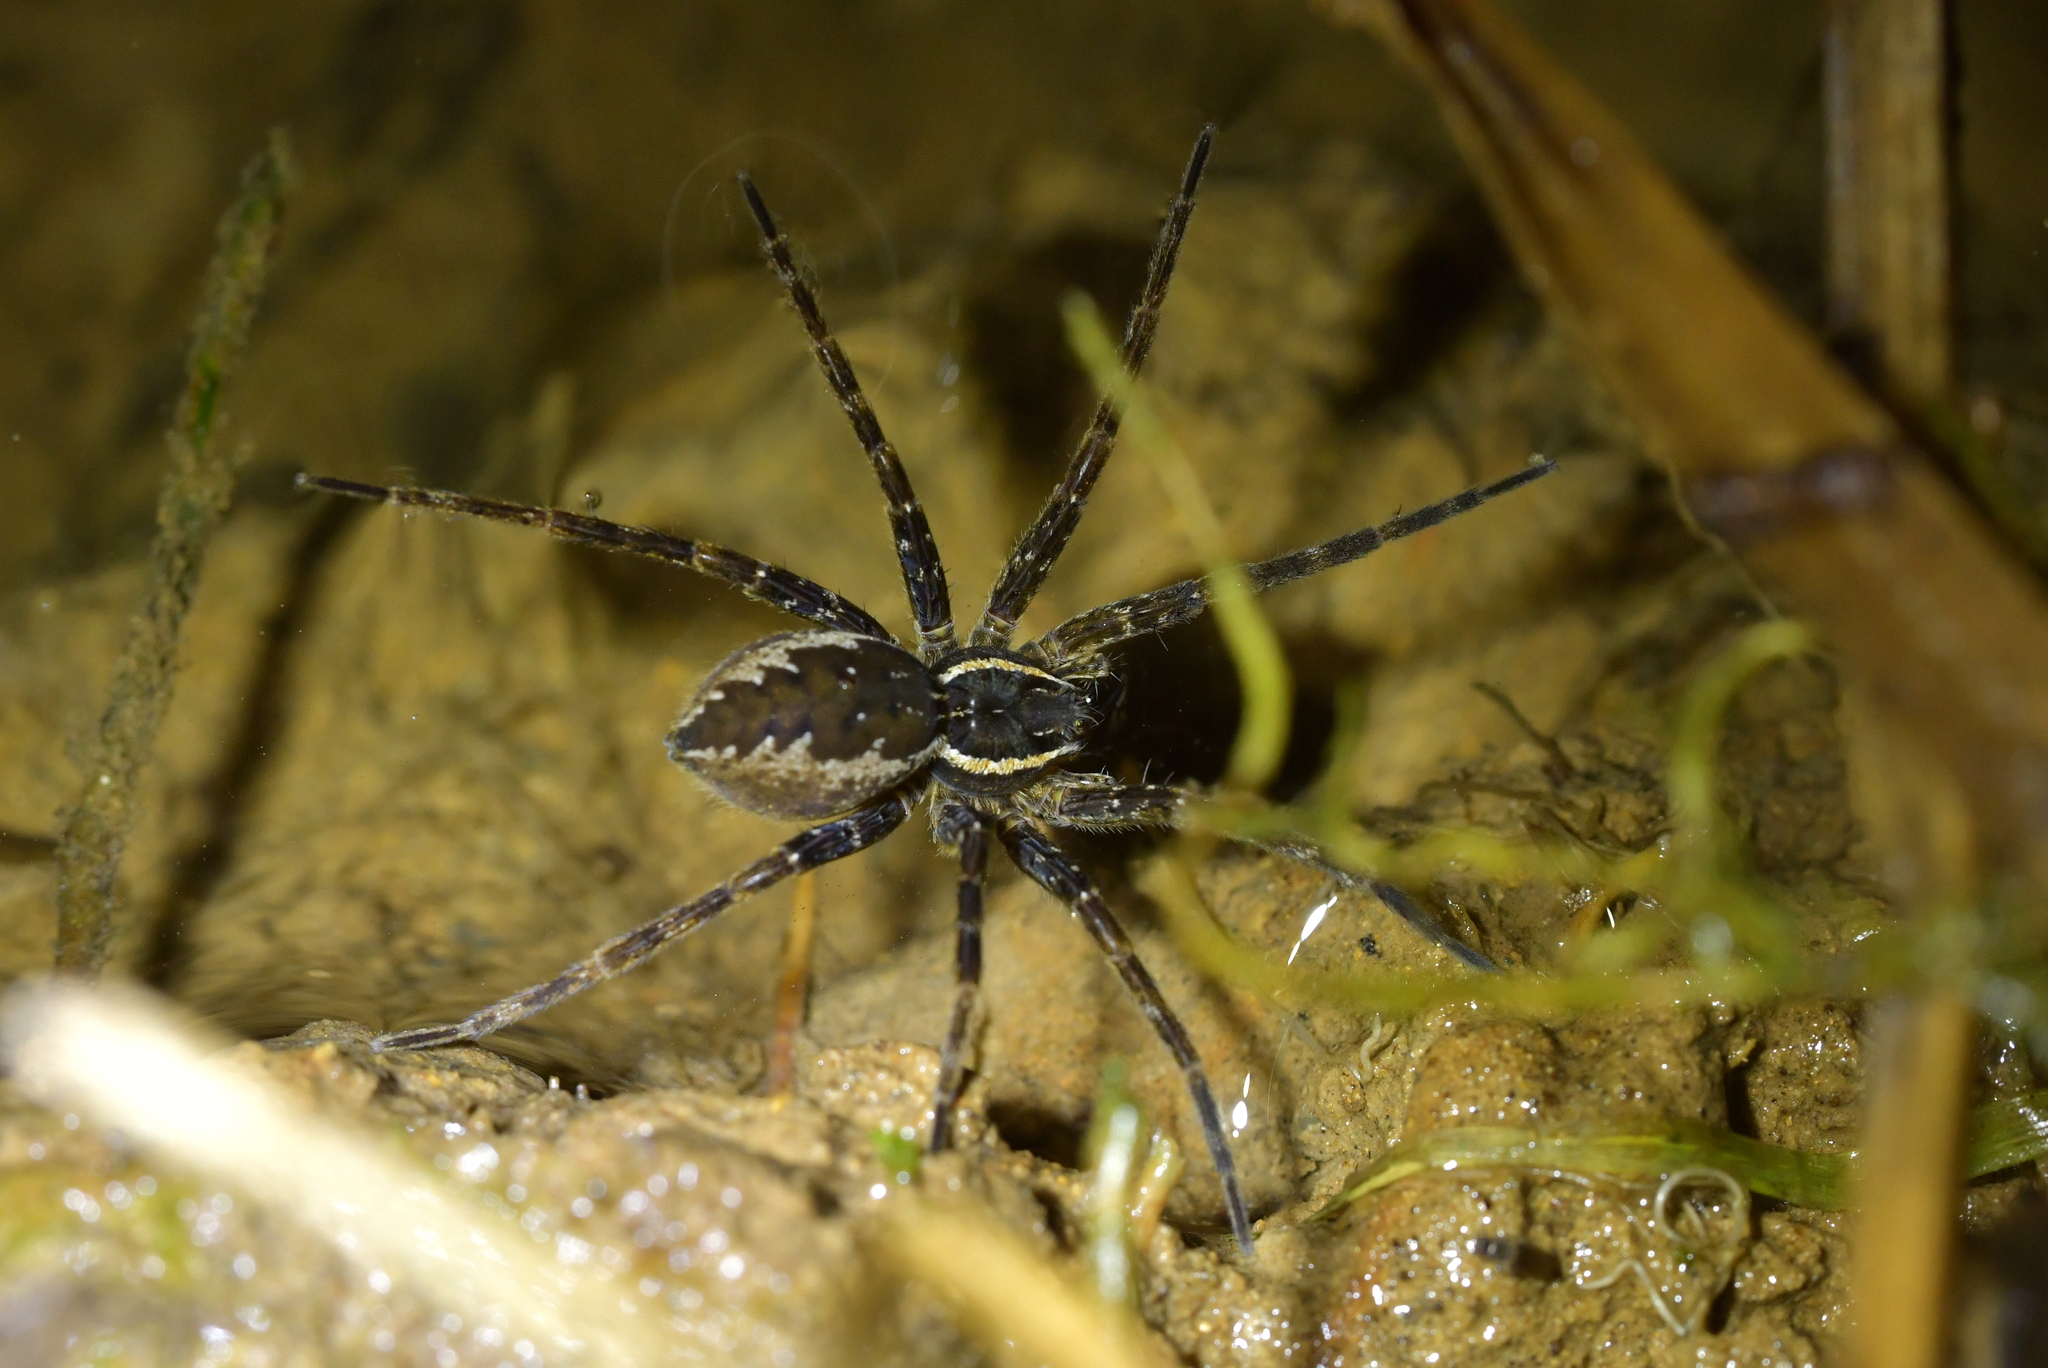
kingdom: Animalia
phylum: Arthropoda
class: Arachnida
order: Araneae
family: Pisauridae
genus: Dolomedes
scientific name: Dolomedes dondalei
